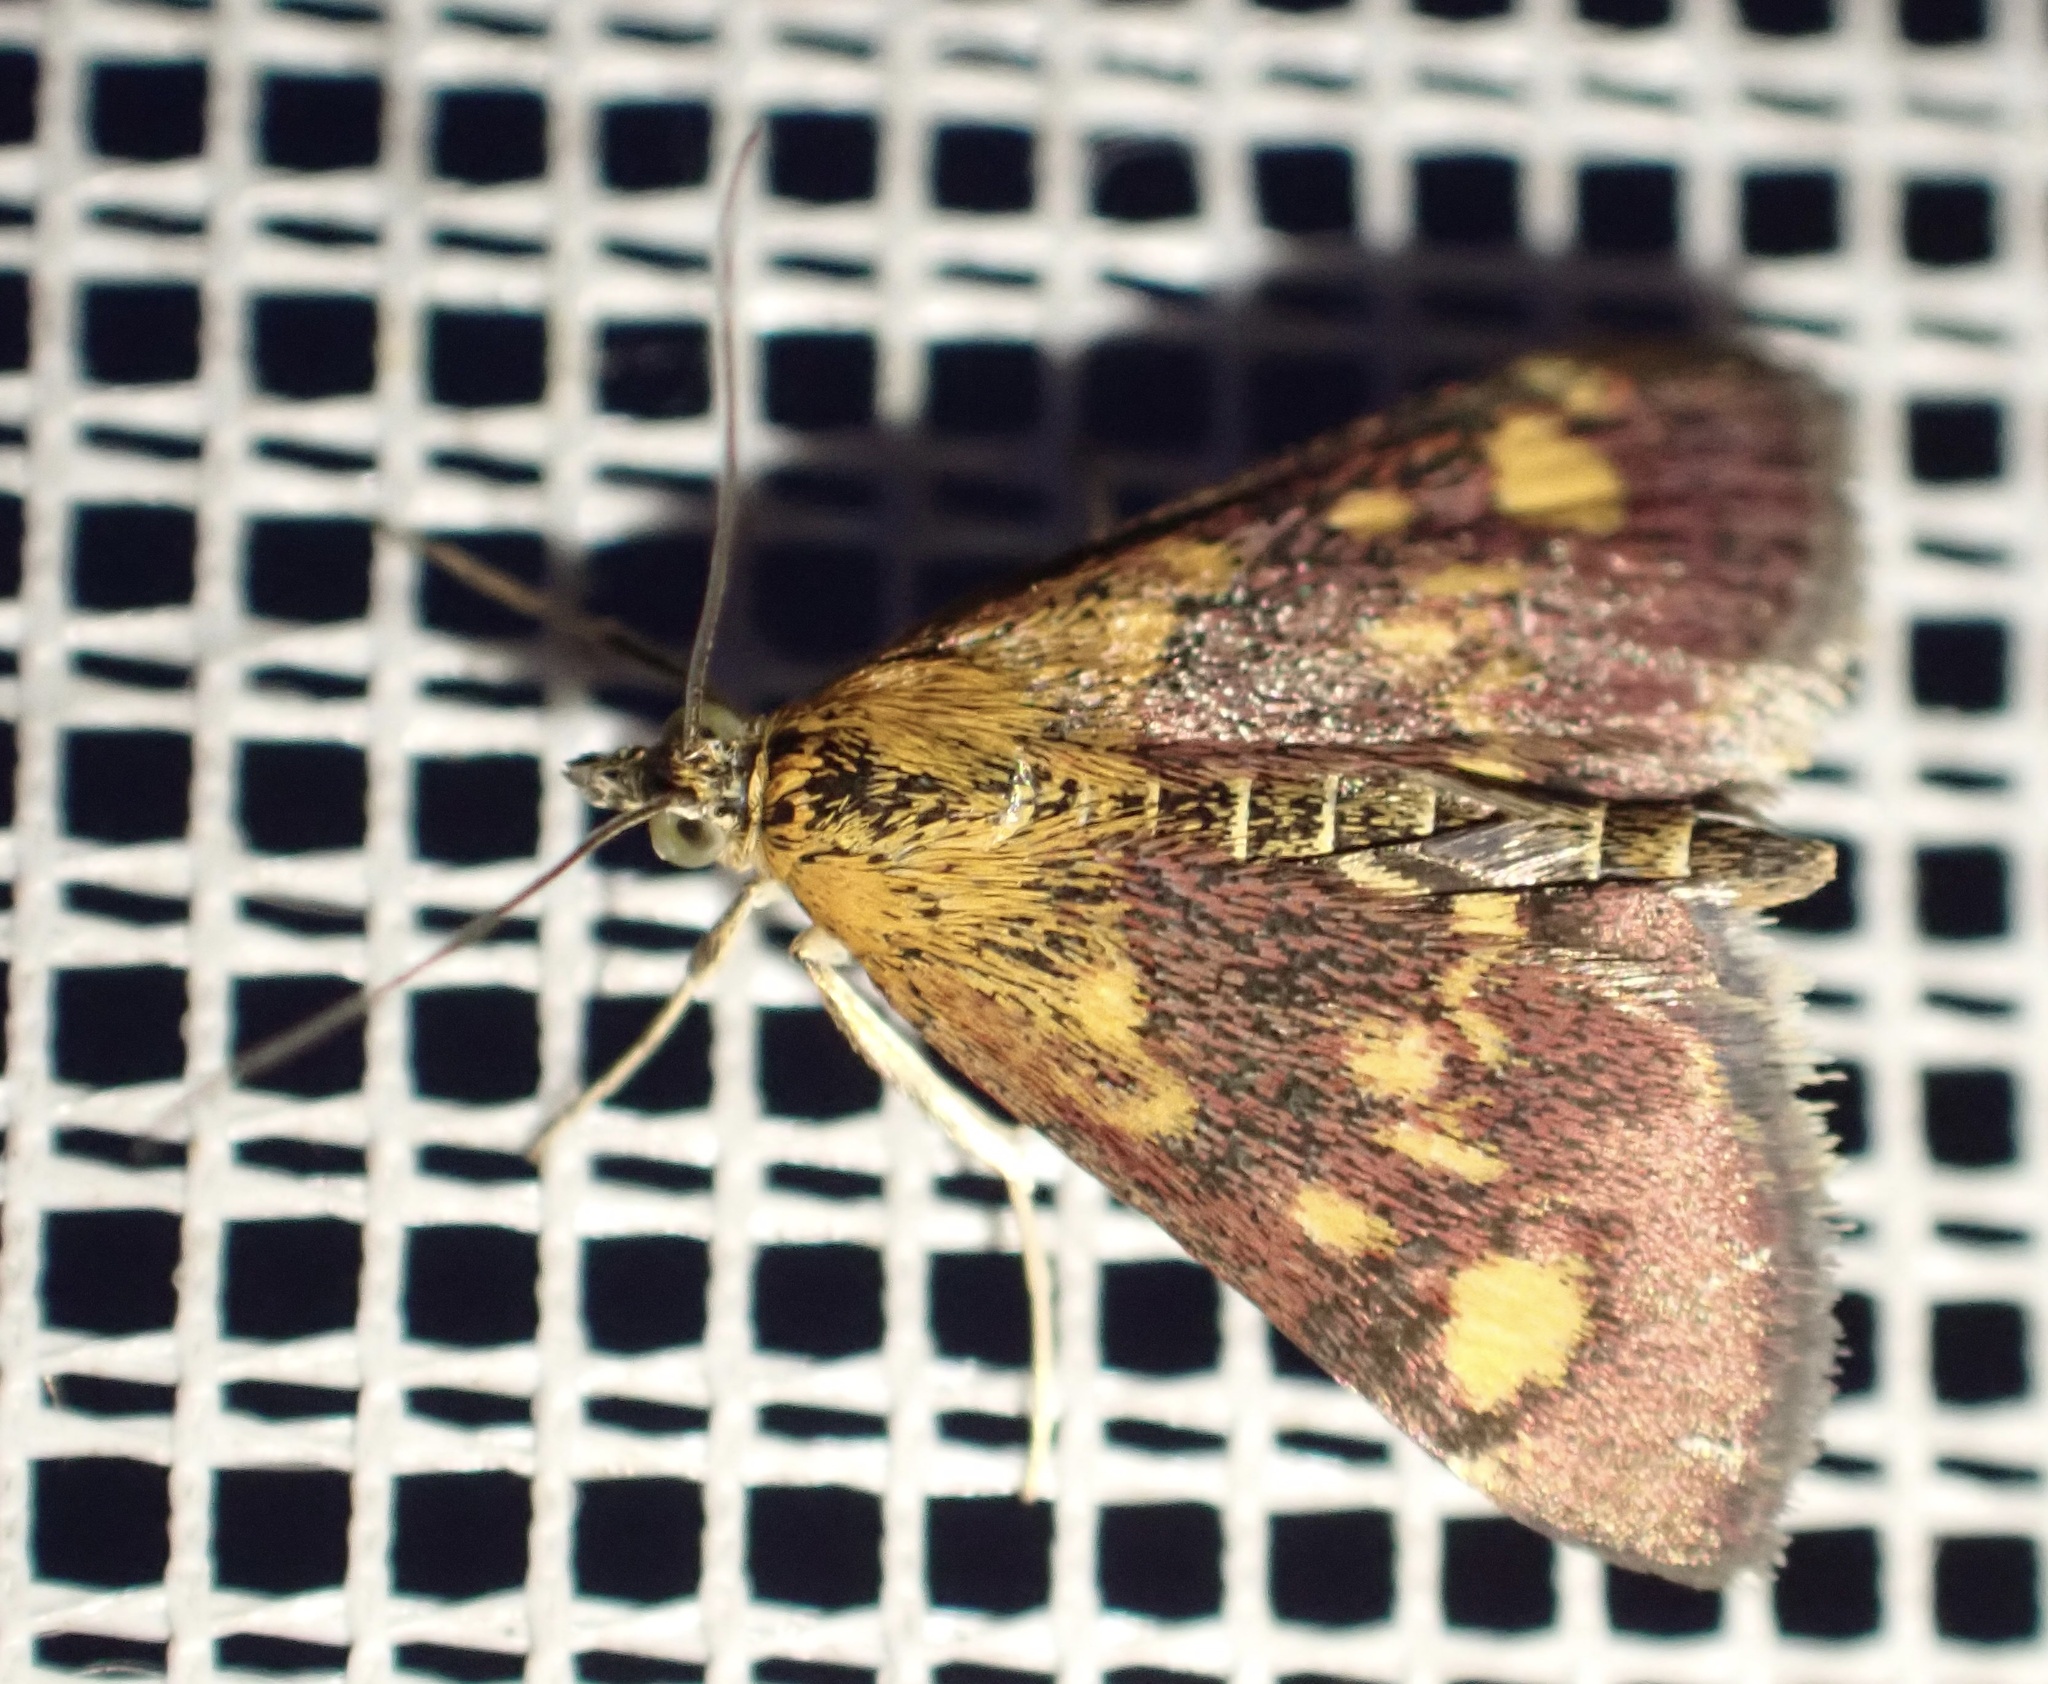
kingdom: Animalia
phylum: Arthropoda
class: Insecta
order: Lepidoptera
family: Crambidae
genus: Pyrausta
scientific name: Pyrausta aurata
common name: Small purple & gold
